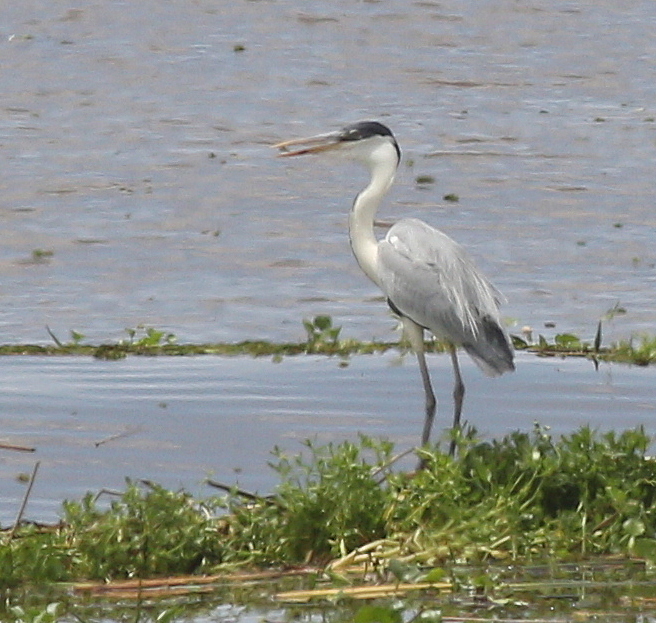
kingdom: Animalia
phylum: Chordata
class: Aves
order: Pelecaniformes
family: Ardeidae
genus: Ardea
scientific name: Ardea cocoi
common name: Cocoi heron
